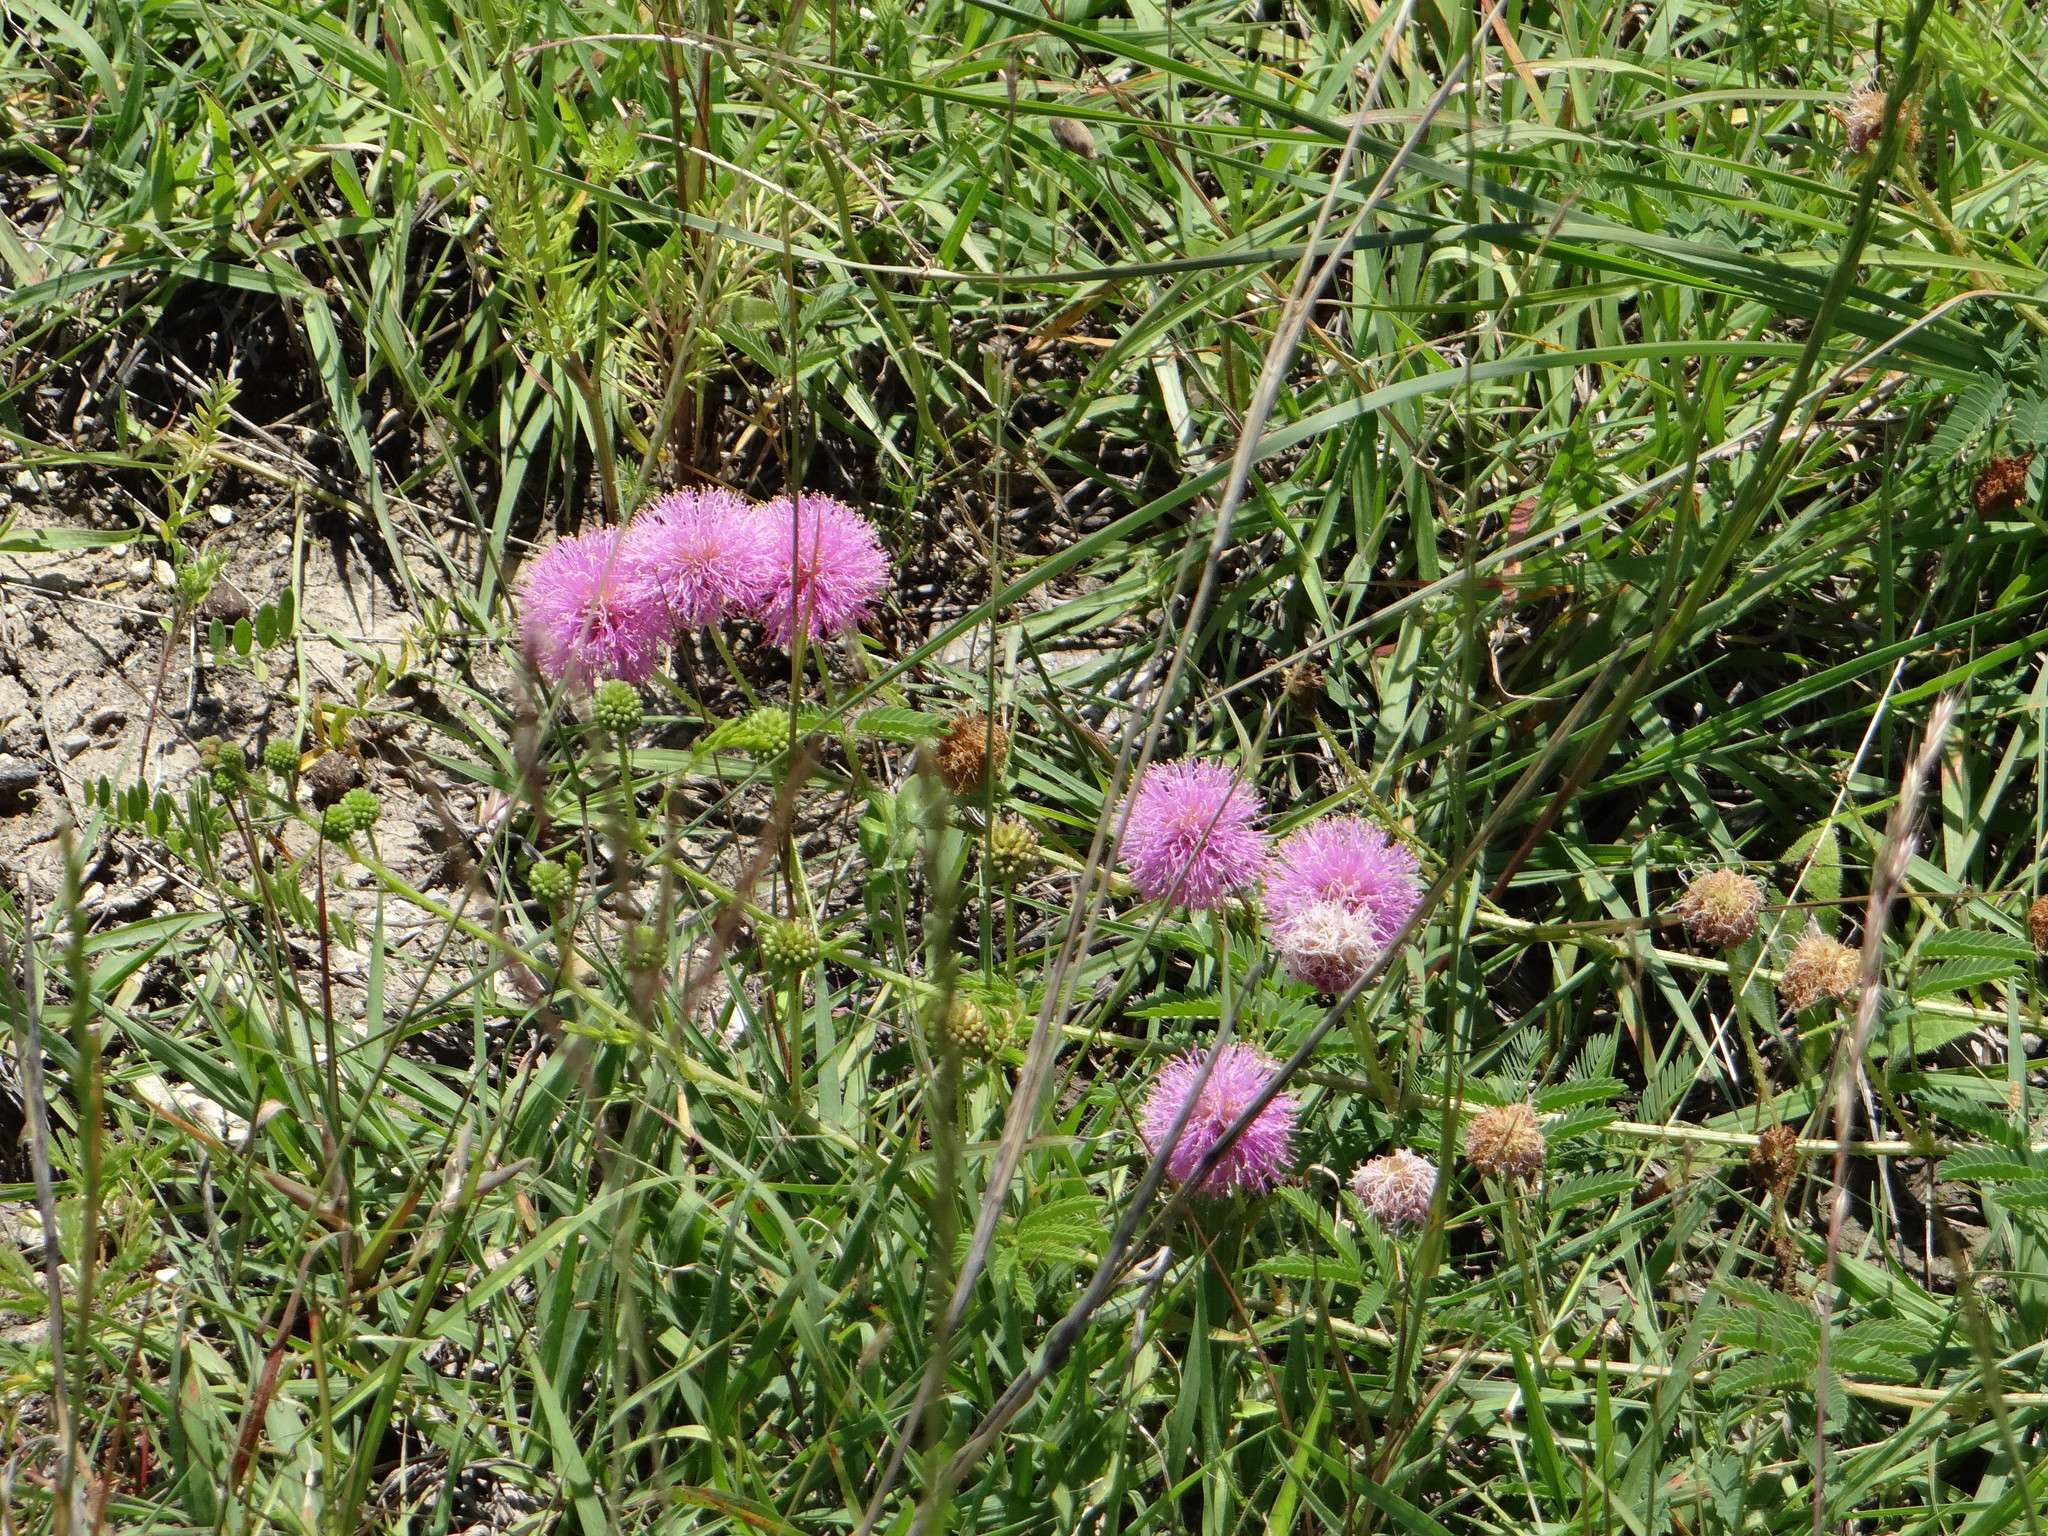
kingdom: Plantae
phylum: Tracheophyta
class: Magnoliopsida
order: Fabales
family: Fabaceae
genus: Mimosa
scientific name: Mimosa quadrivalvis
